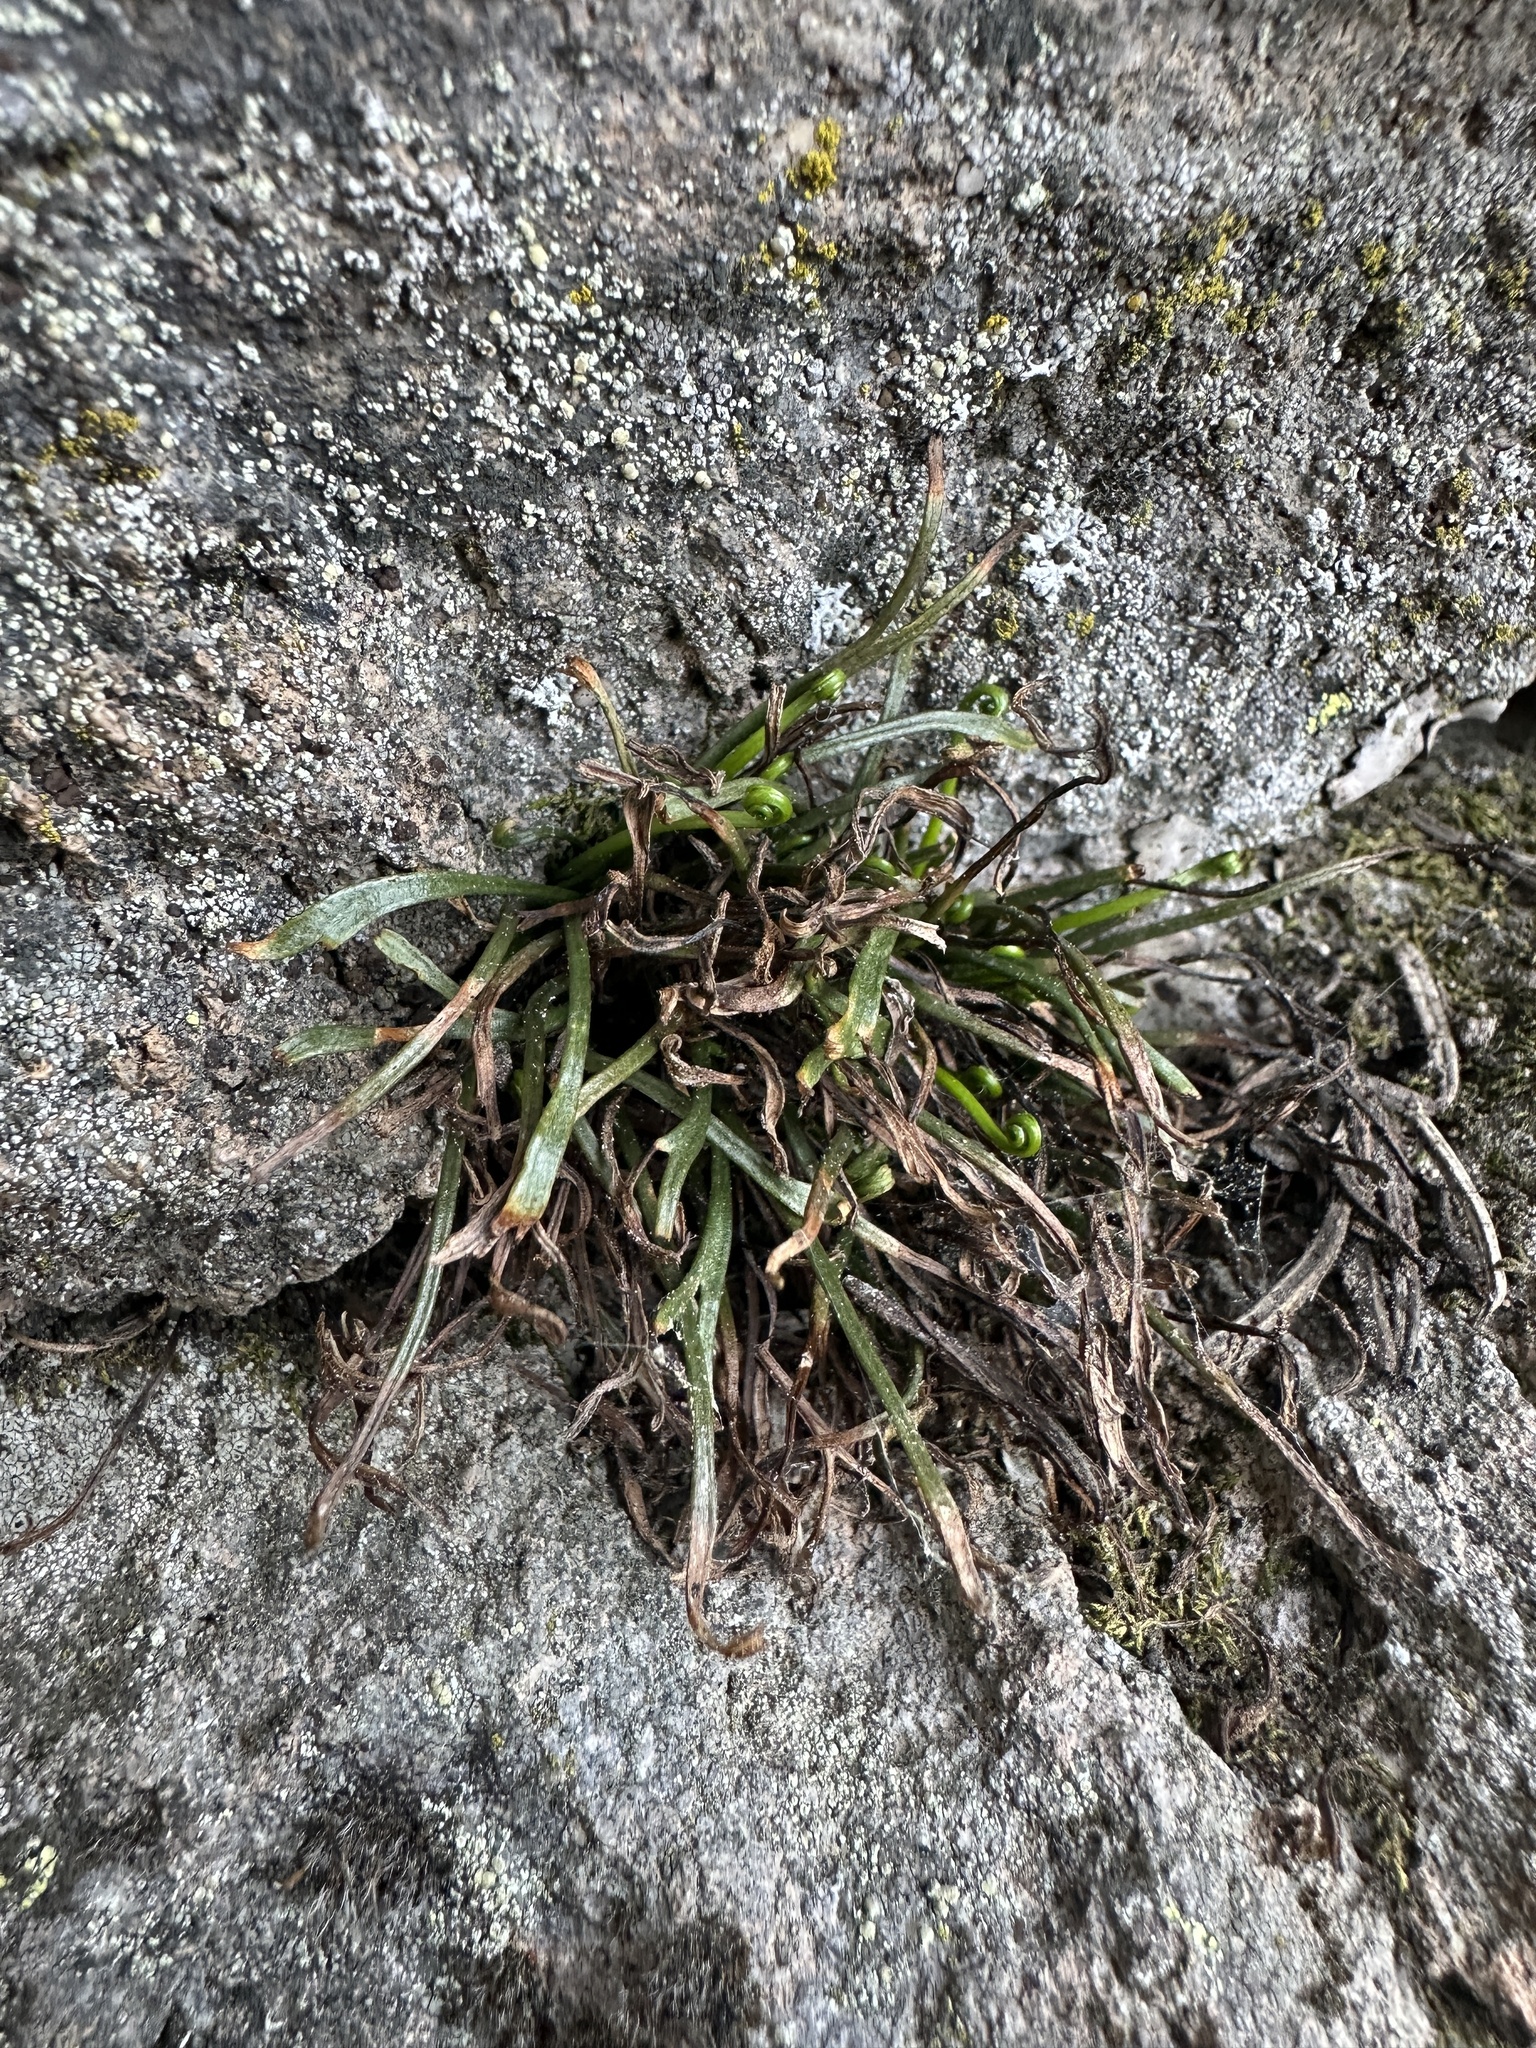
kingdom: Plantae
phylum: Tracheophyta
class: Polypodiopsida
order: Polypodiales
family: Aspleniaceae
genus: Asplenium
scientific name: Asplenium septentrionale
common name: Forked spleenwort
